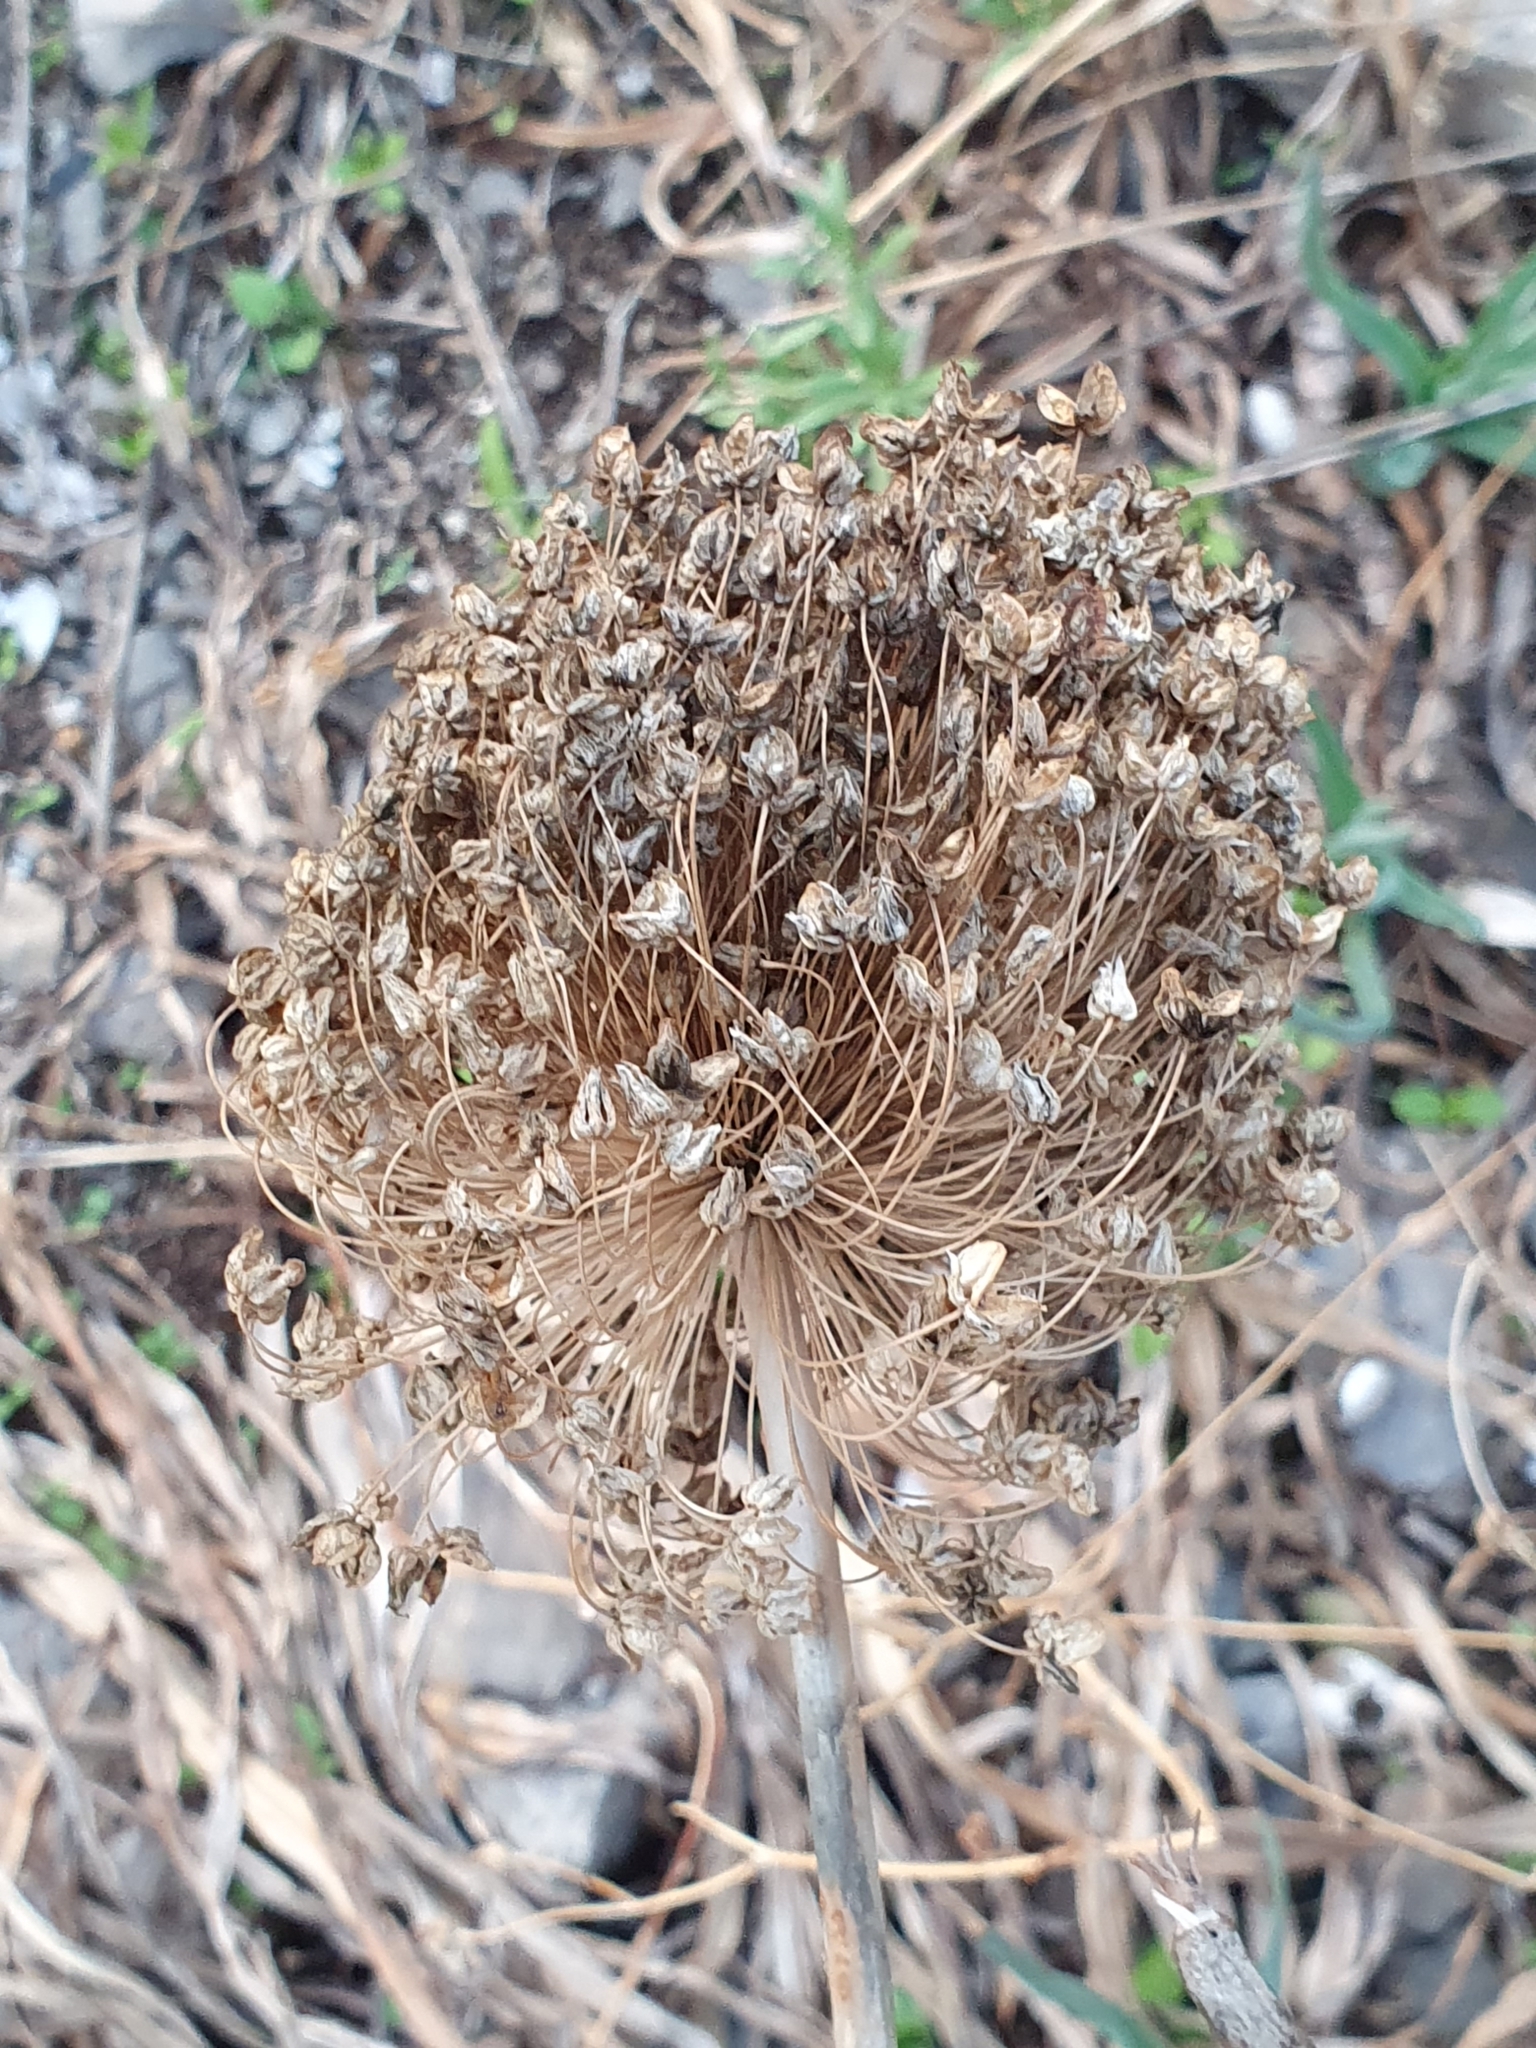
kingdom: Plantae
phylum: Tracheophyta
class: Liliopsida
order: Asparagales
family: Amaryllidaceae
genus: Allium
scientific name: Allium multiflorum
